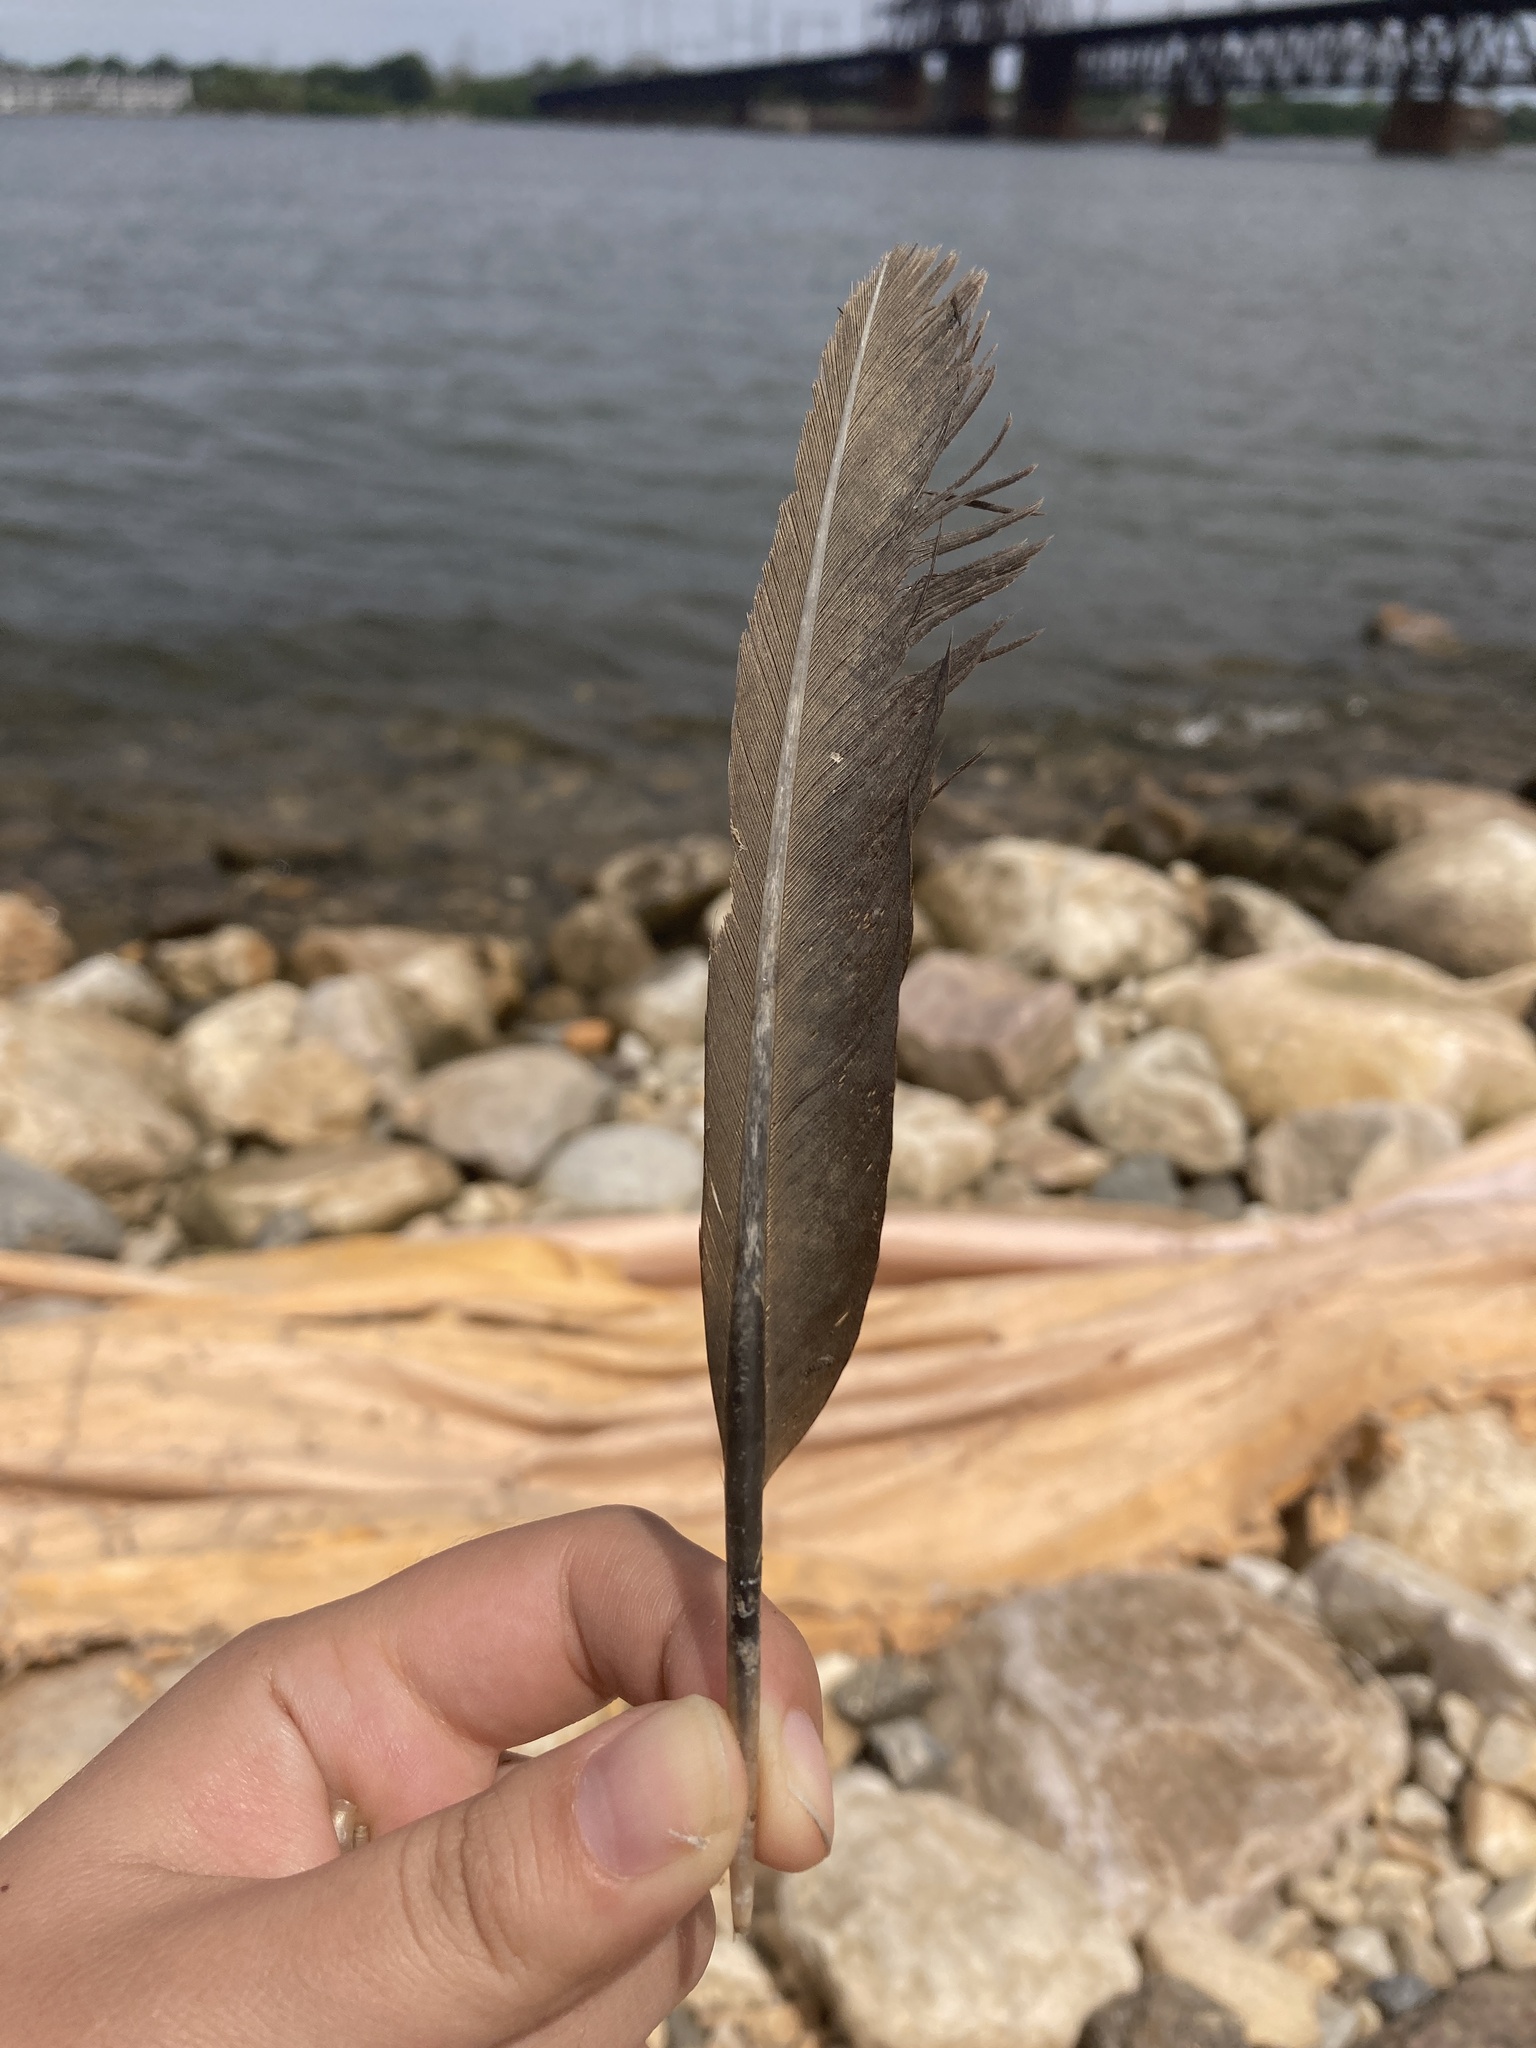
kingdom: Animalia
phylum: Chordata
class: Aves
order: Suliformes
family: Phalacrocoracidae
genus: Phalacrocorax
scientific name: Phalacrocorax auritus
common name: Double-crested cormorant
